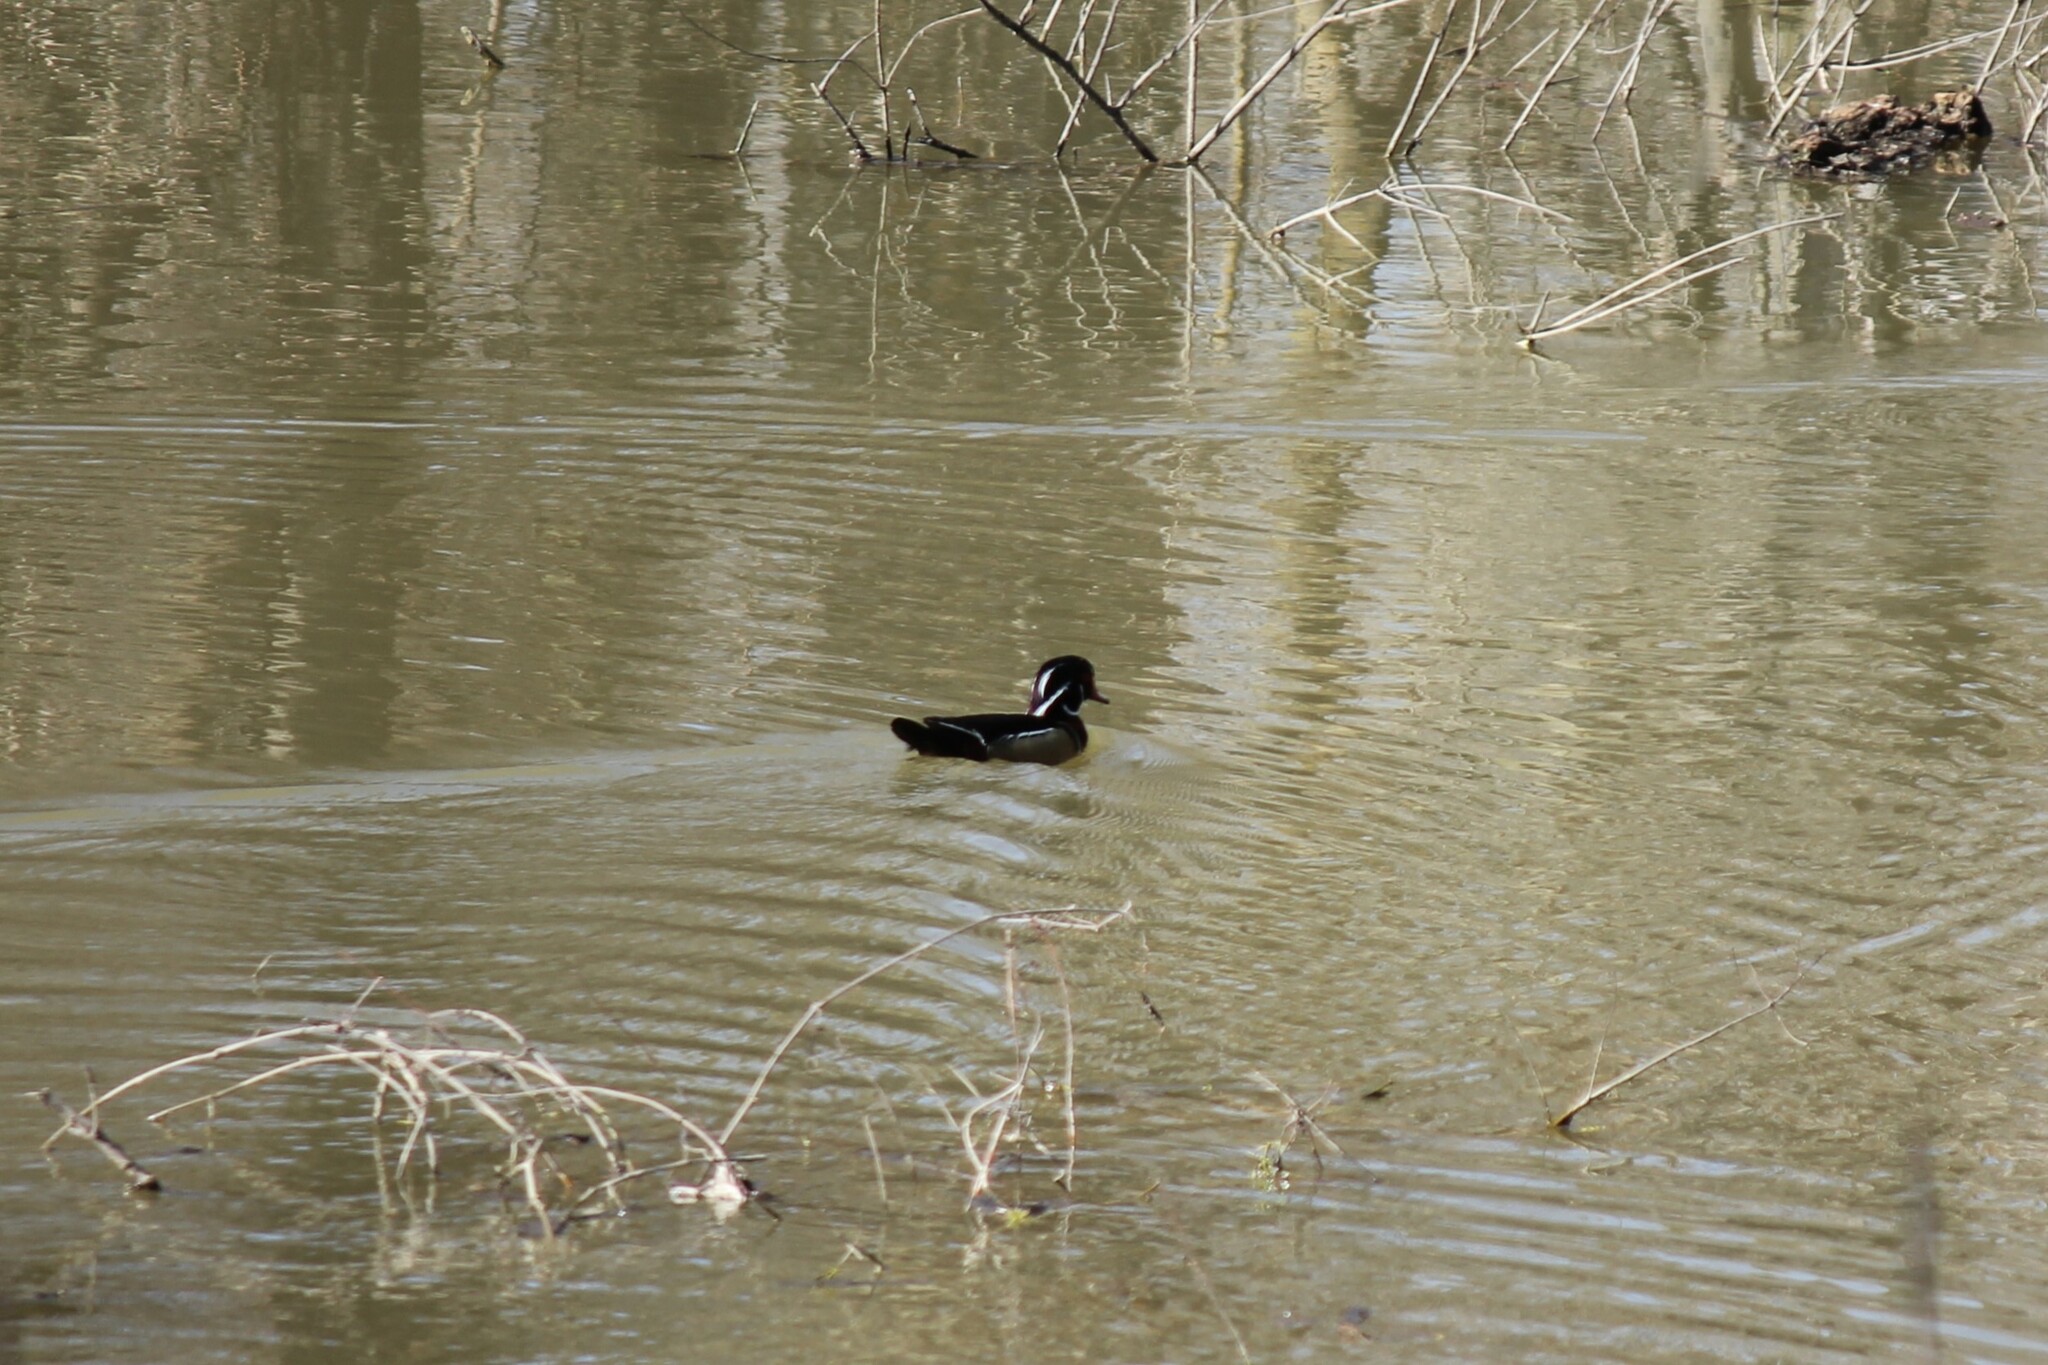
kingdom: Animalia
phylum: Chordata
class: Aves
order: Anseriformes
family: Anatidae
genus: Aix
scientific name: Aix sponsa
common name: Wood duck
